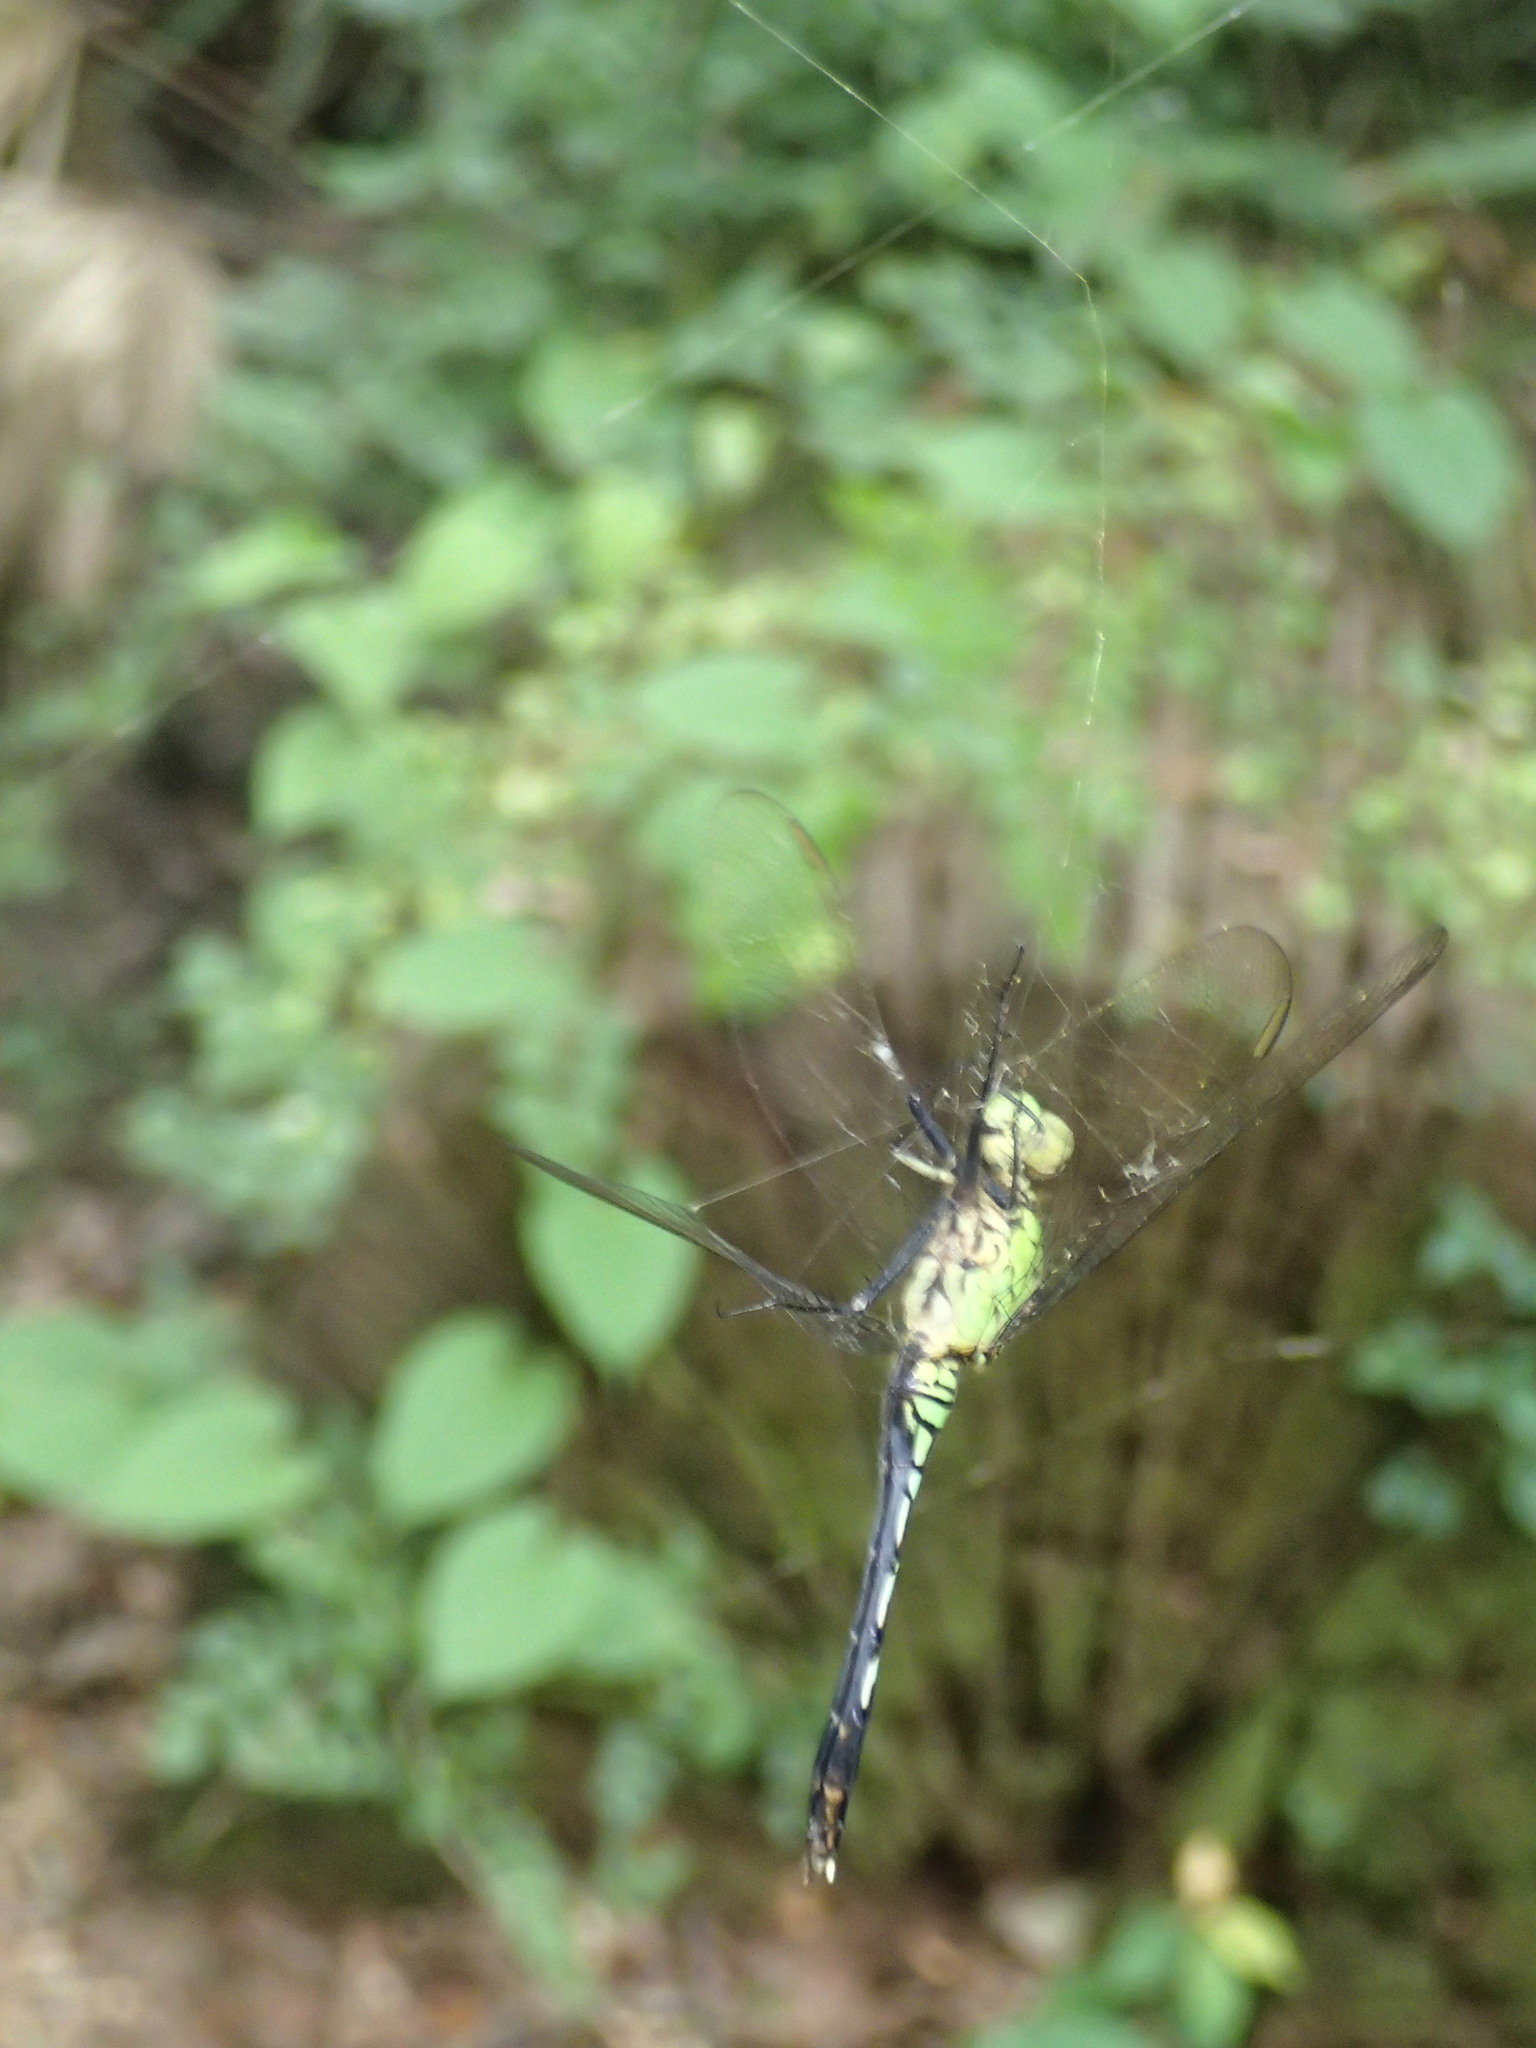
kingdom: Animalia
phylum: Arthropoda
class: Insecta
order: Odonata
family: Libellulidae
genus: Erythemis
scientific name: Erythemis simplicicollis
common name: Eastern pondhawk
